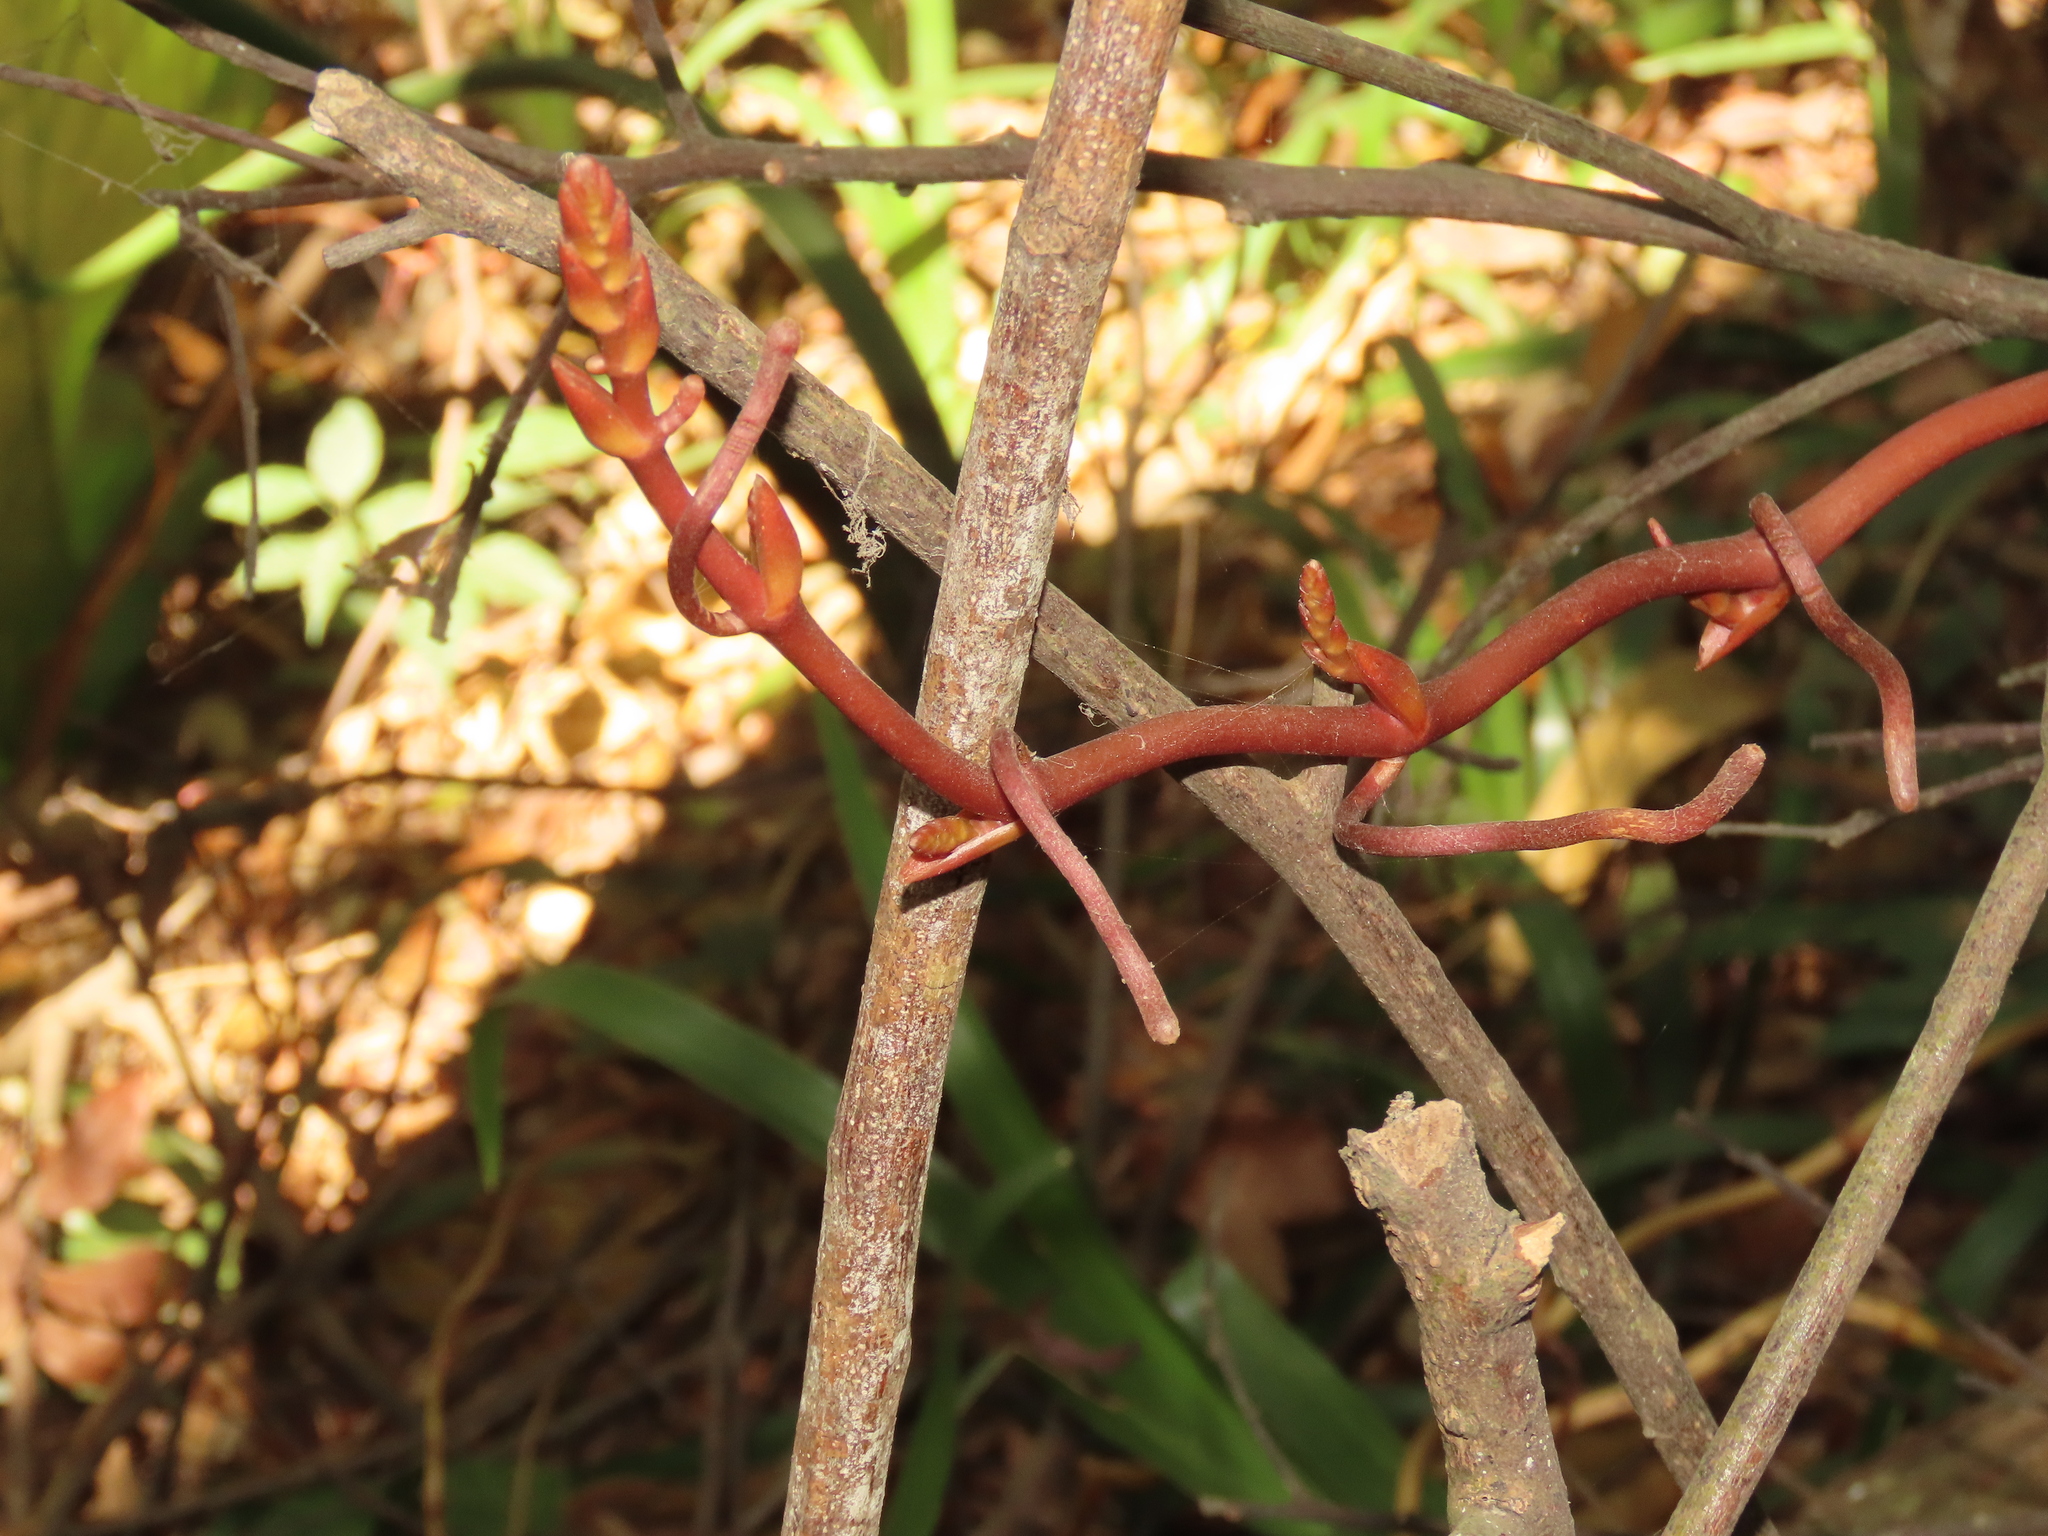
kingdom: Plantae
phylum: Tracheophyta
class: Liliopsida
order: Asparagales
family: Orchidaceae
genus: Erythrorchis
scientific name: Erythrorchis altissima
